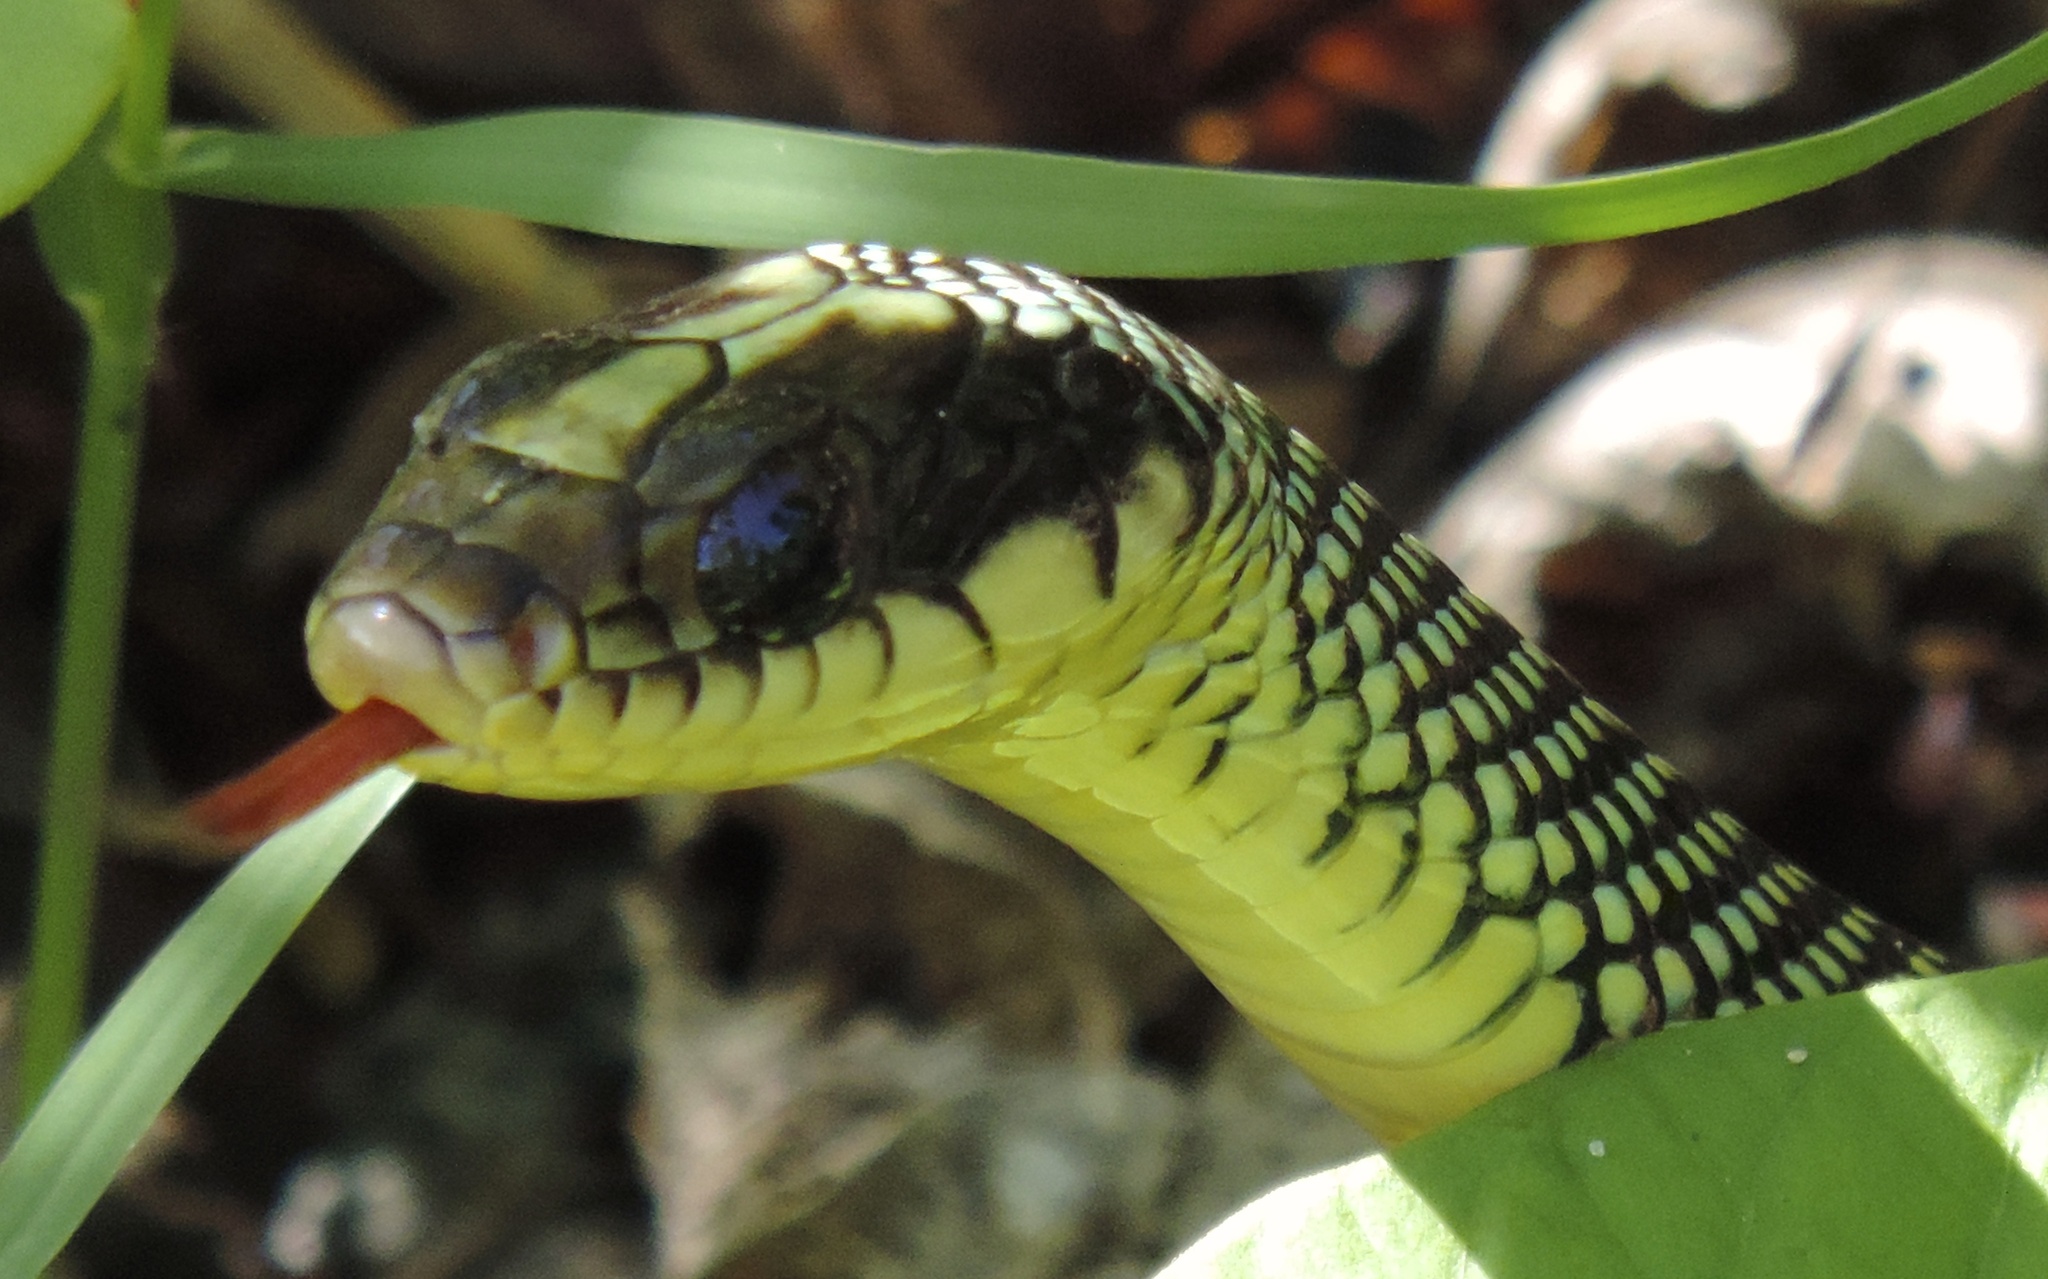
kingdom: Animalia
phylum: Chordata
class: Squamata
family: Colubridae
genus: Drymobius
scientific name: Drymobius margaritiferus
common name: Central american speckled racer
